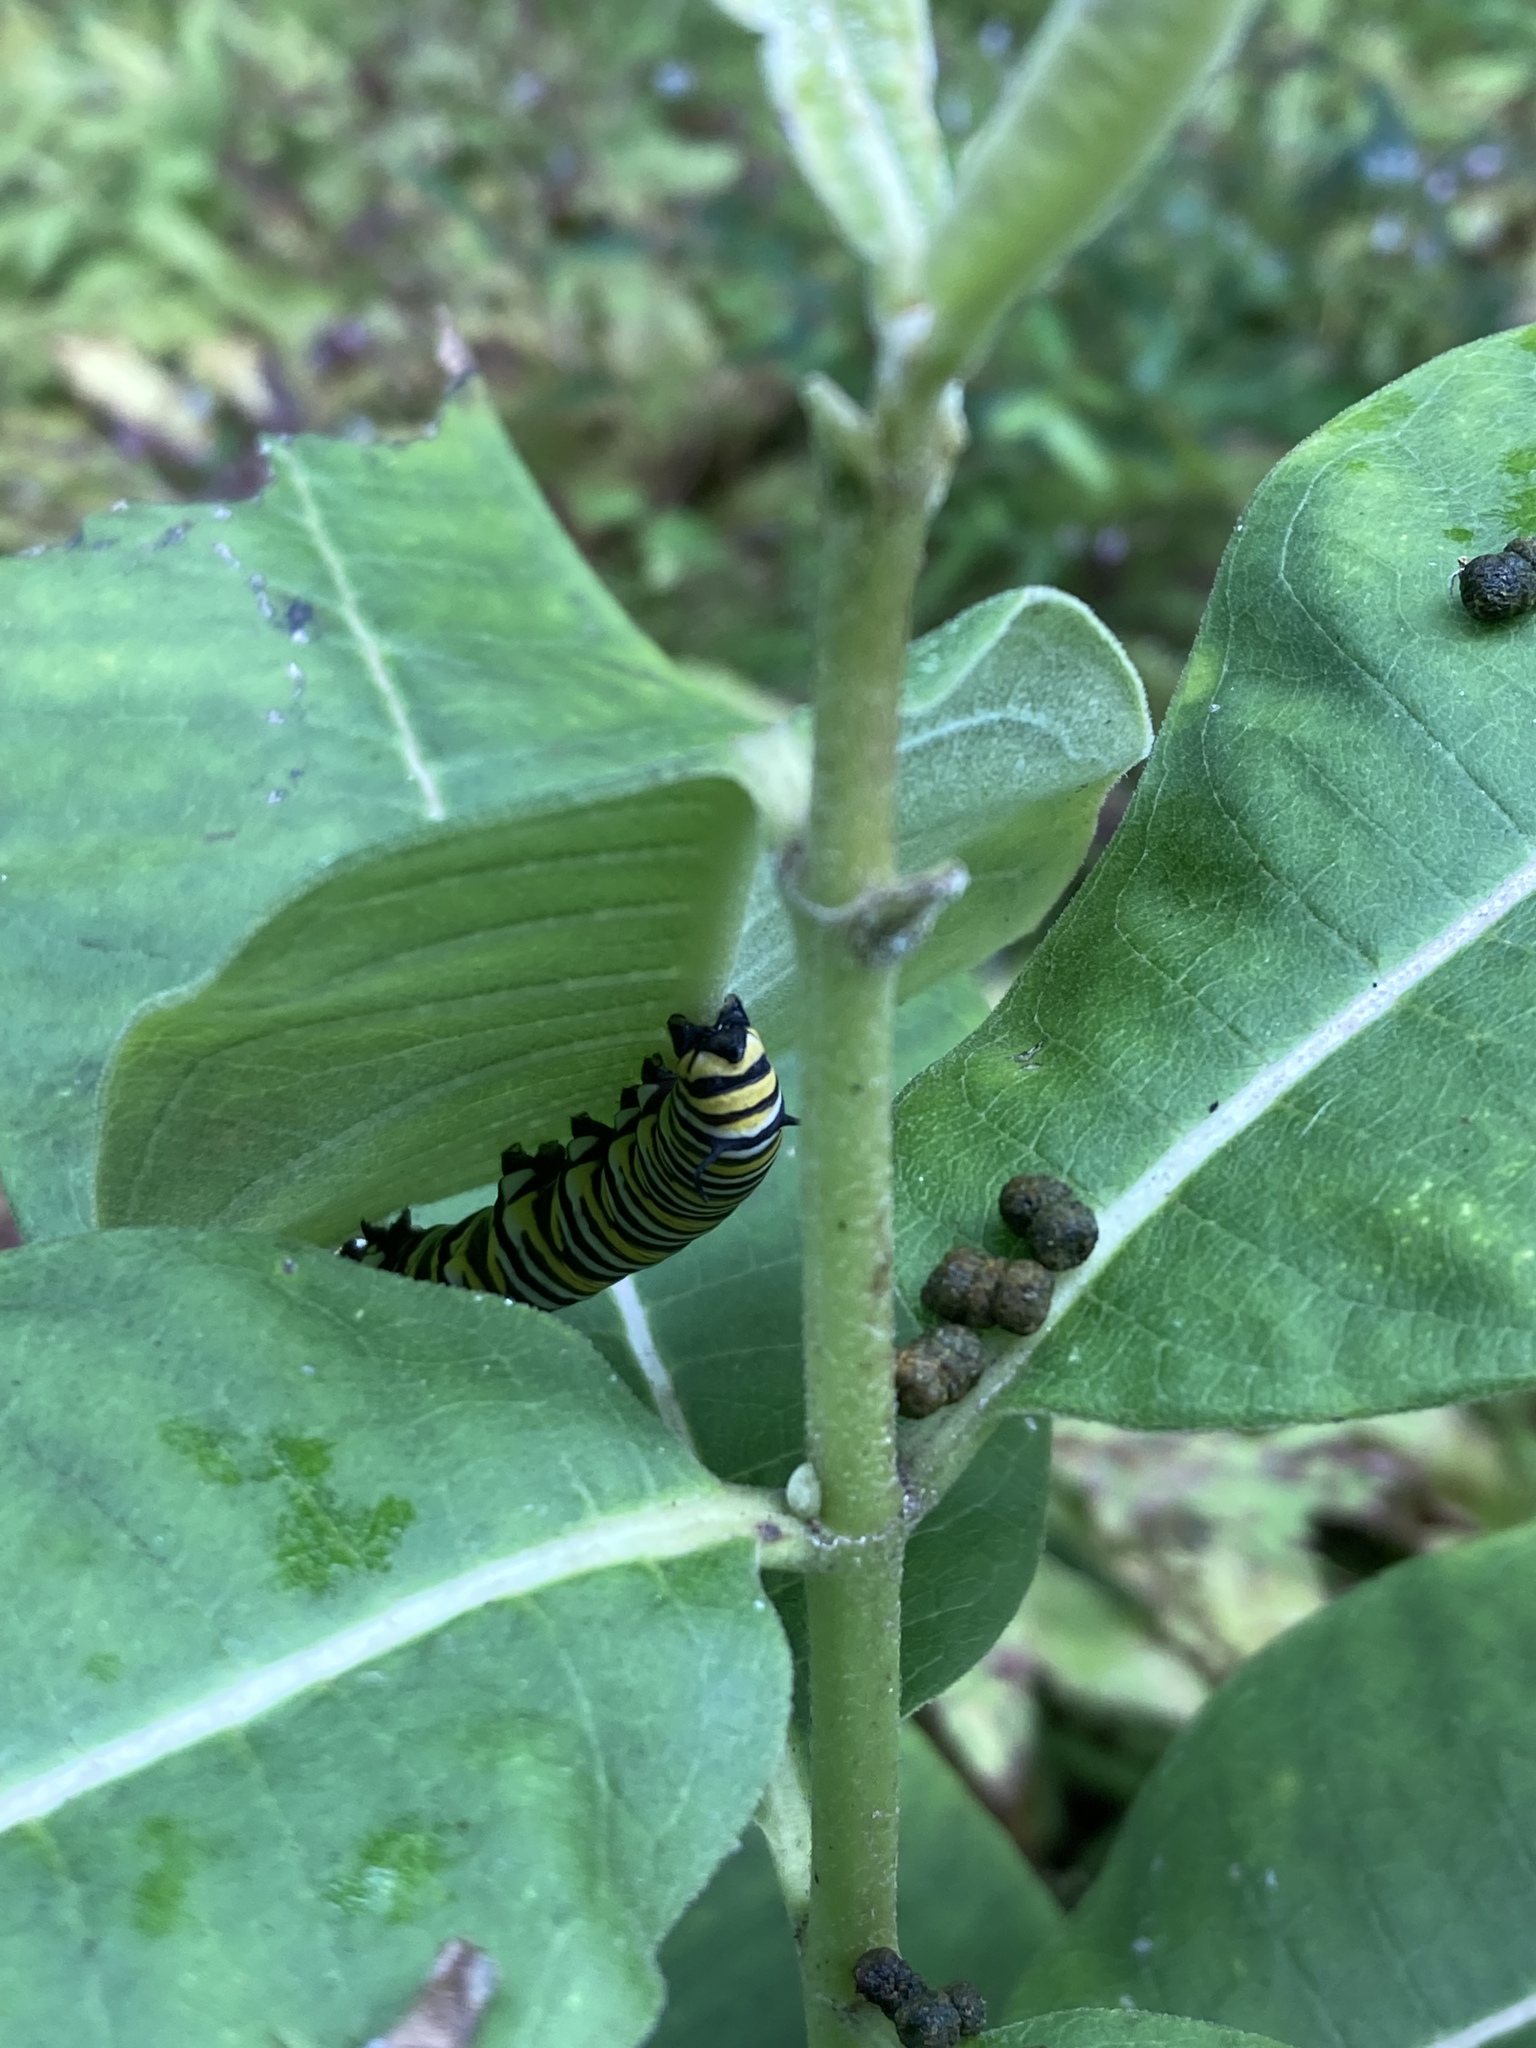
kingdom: Animalia
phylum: Arthropoda
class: Insecta
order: Lepidoptera
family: Nymphalidae
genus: Danaus
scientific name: Danaus plexippus
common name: Monarch
